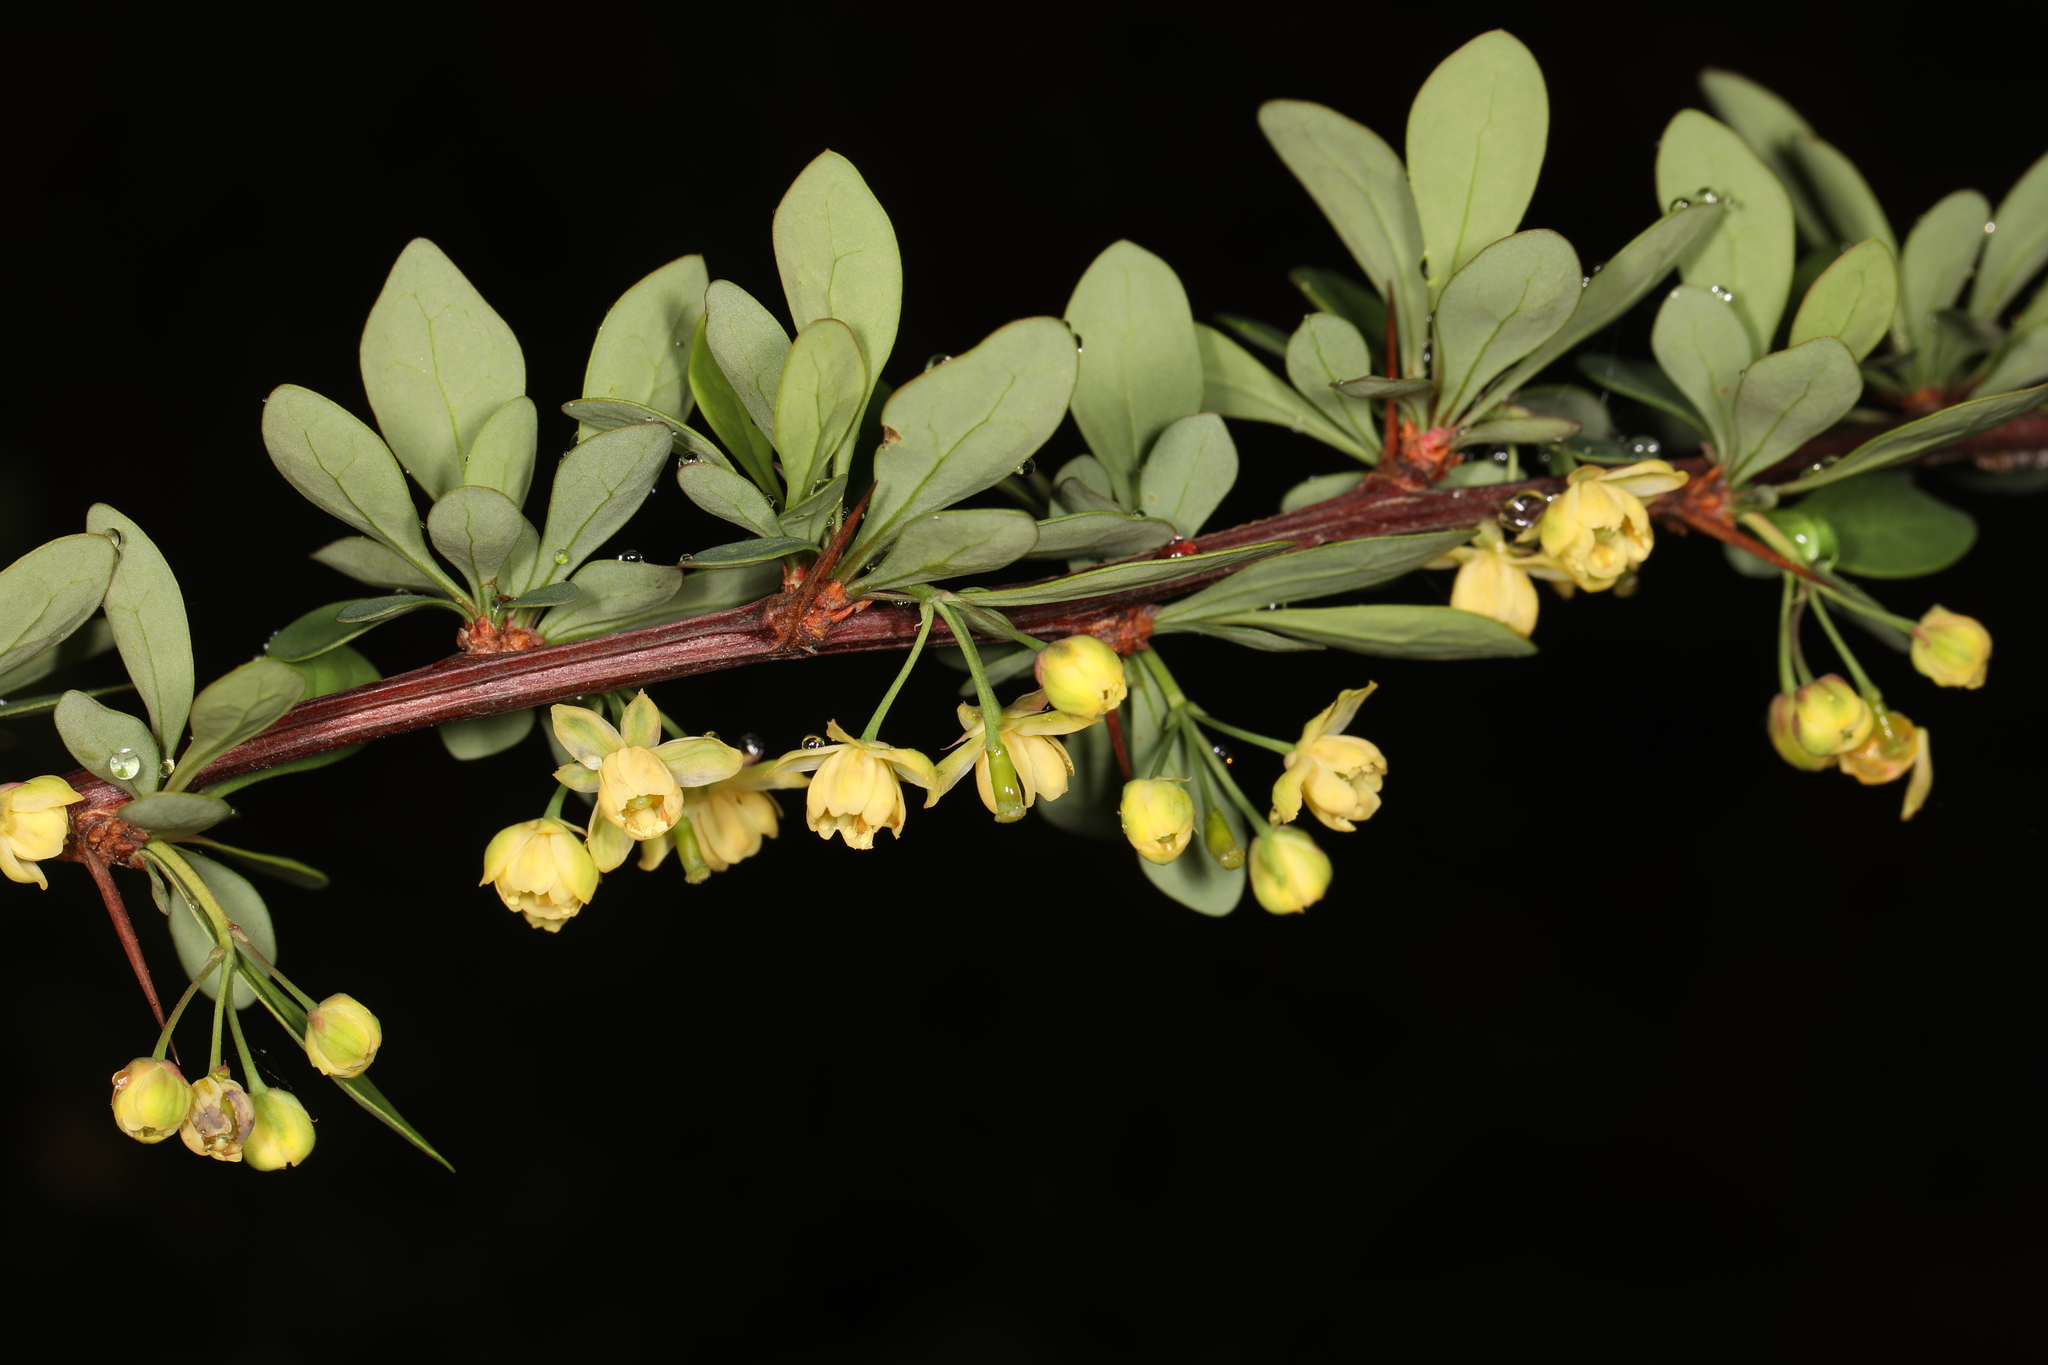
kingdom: Plantae
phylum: Tracheophyta
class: Magnoliopsida
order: Ranunculales
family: Berberidaceae
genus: Berberis
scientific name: Berberis thunbergii
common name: Japanese barberry
